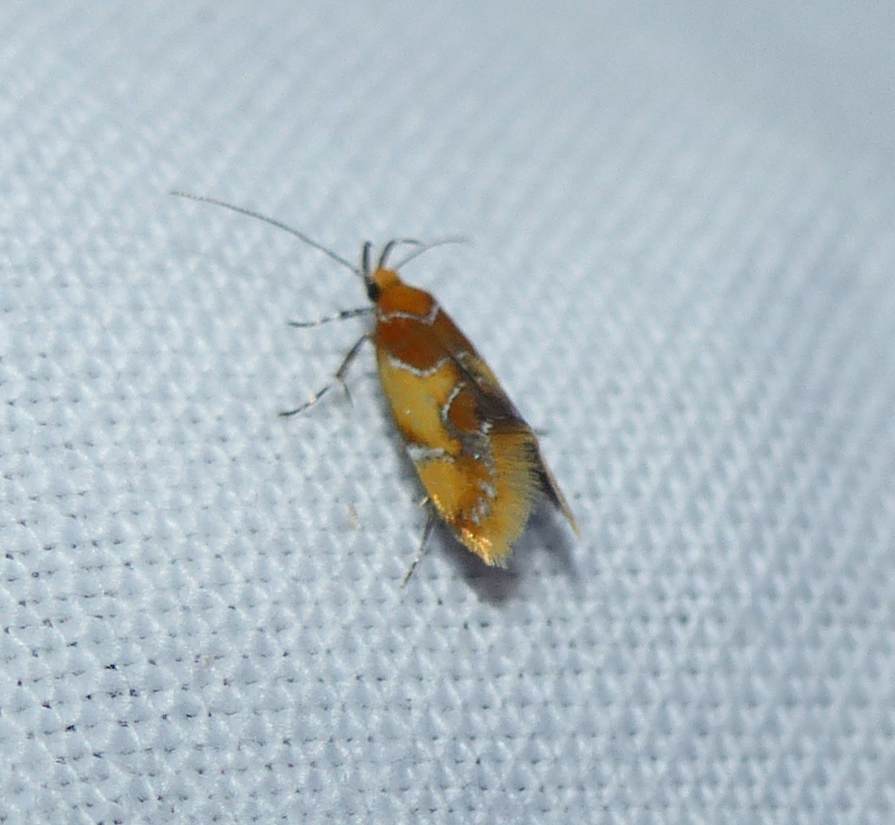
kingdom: Animalia
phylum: Arthropoda
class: Insecta
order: Lepidoptera
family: Oecophoridae
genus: Callima
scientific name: Callima argenticinctella
